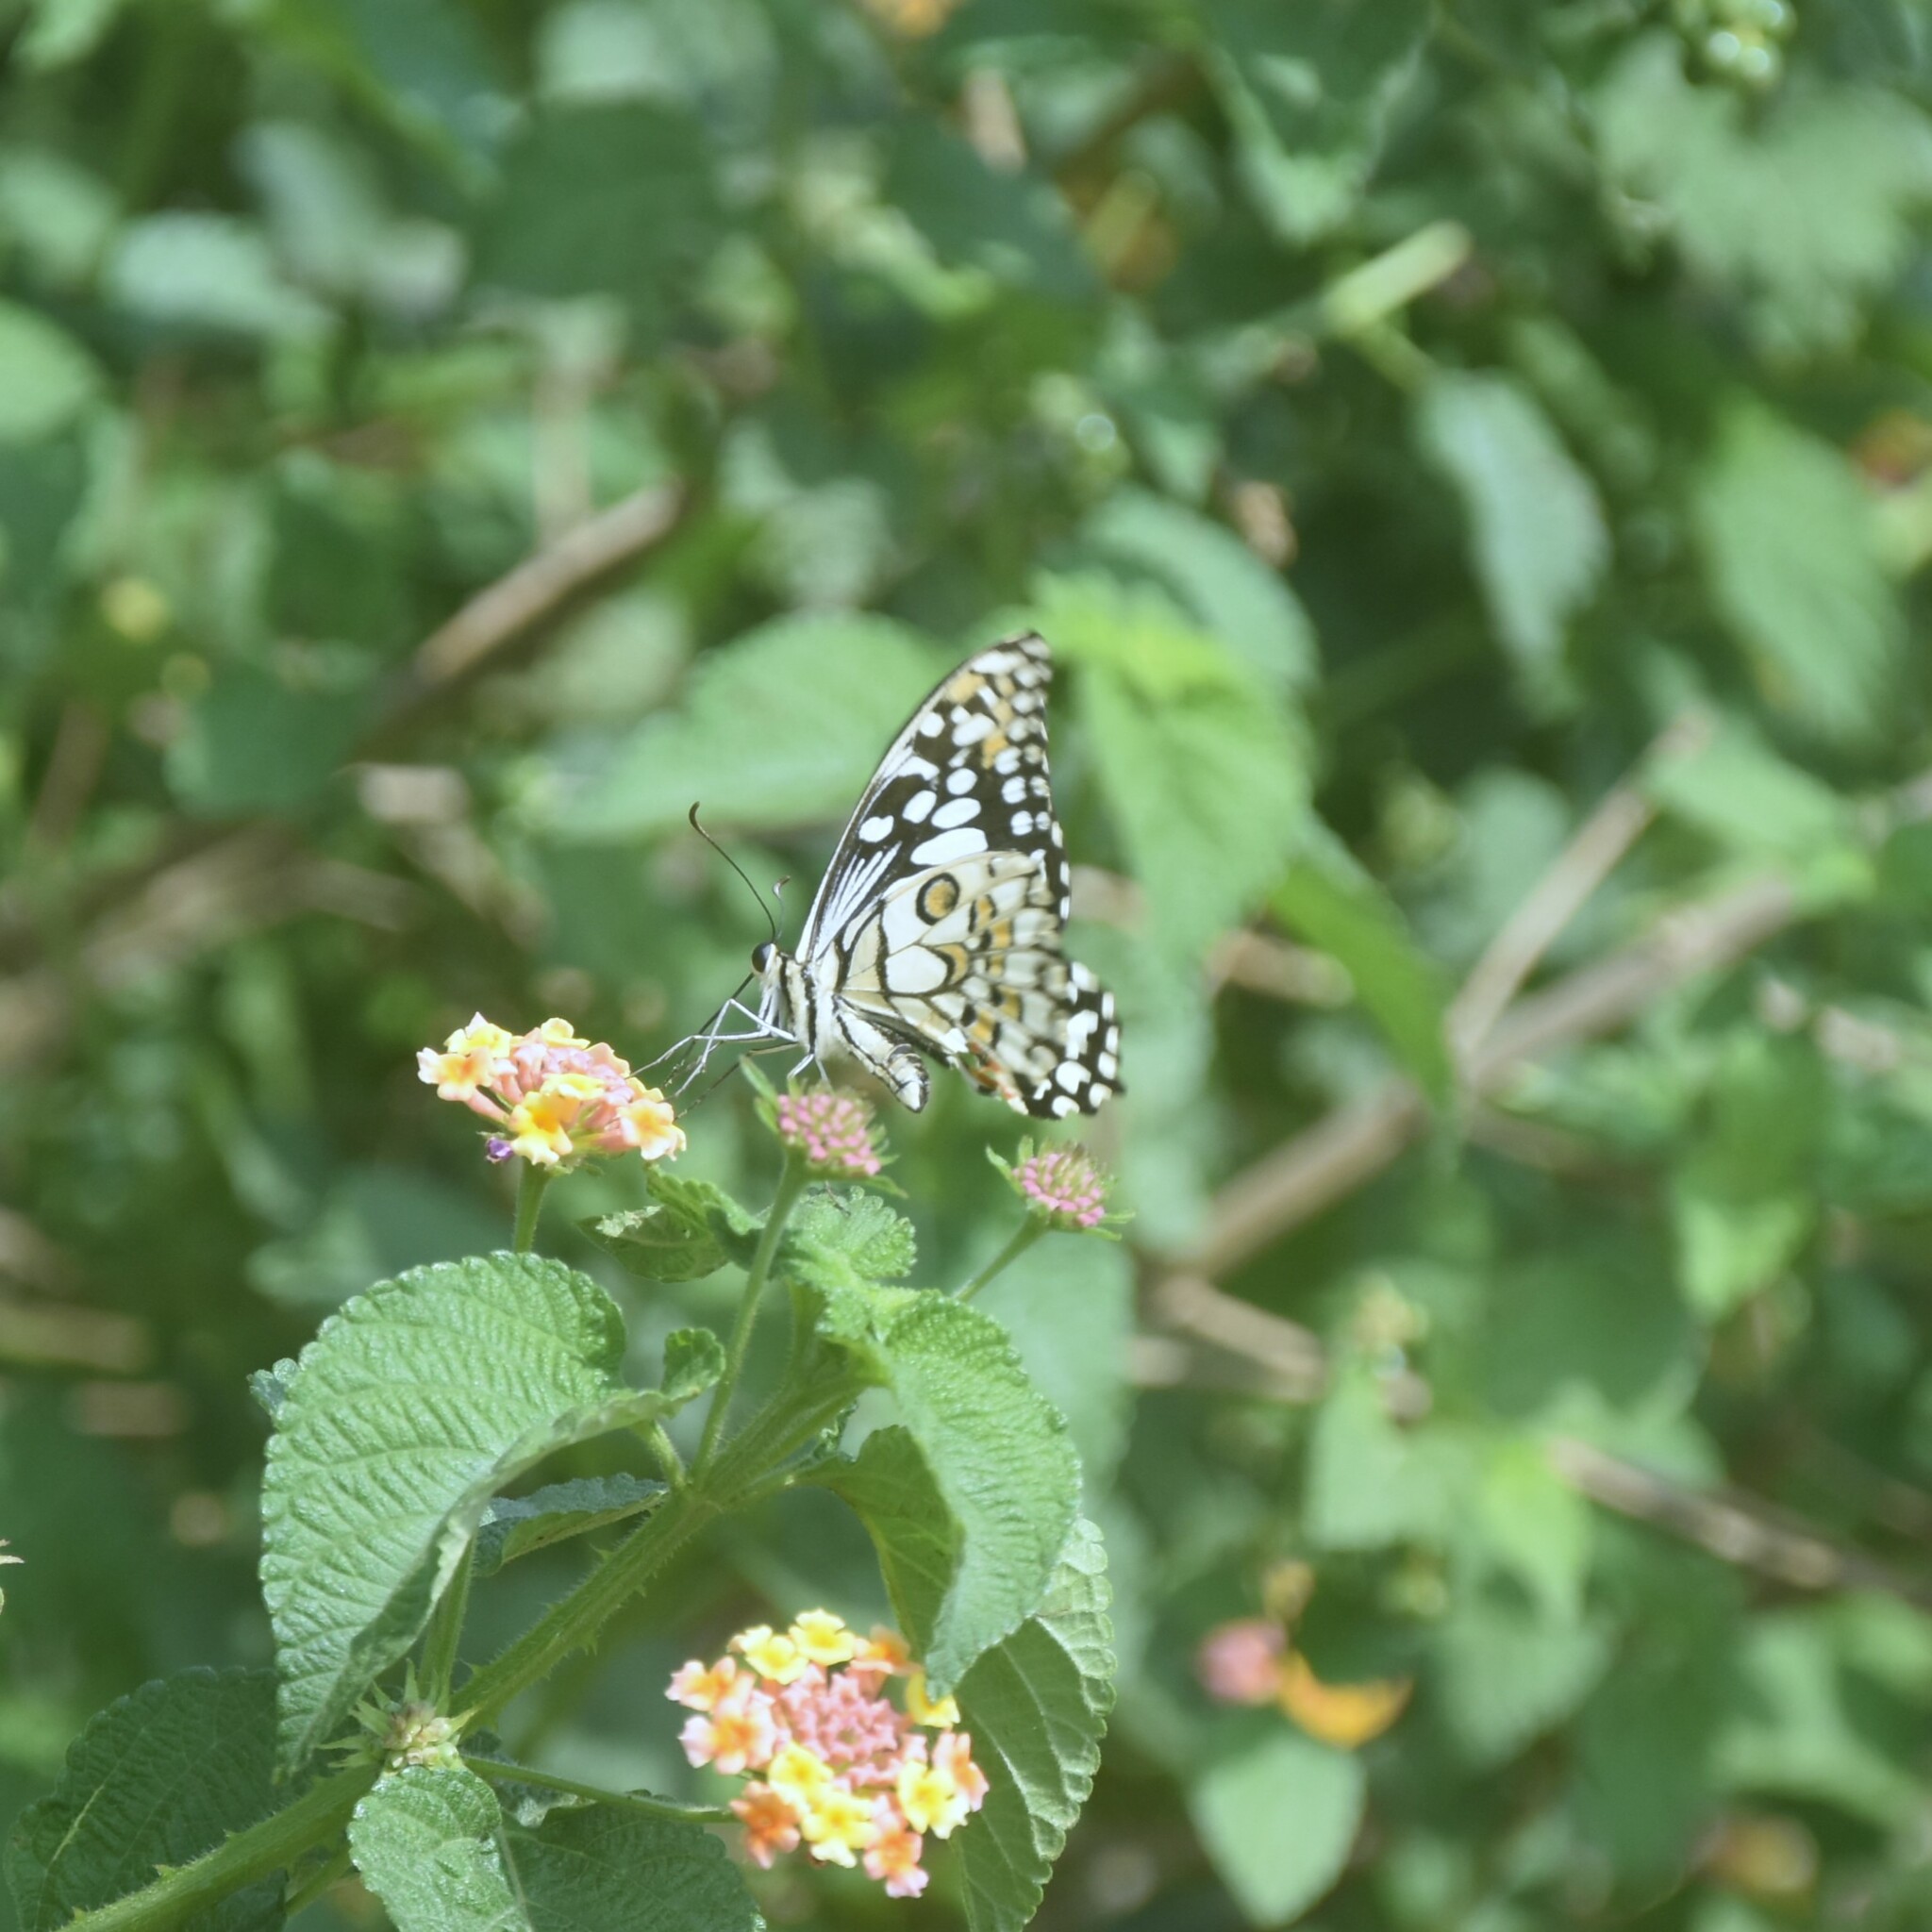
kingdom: Animalia
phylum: Arthropoda
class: Insecta
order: Lepidoptera
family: Papilionidae
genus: Papilio
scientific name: Papilio demoleus
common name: Lime butterfly
